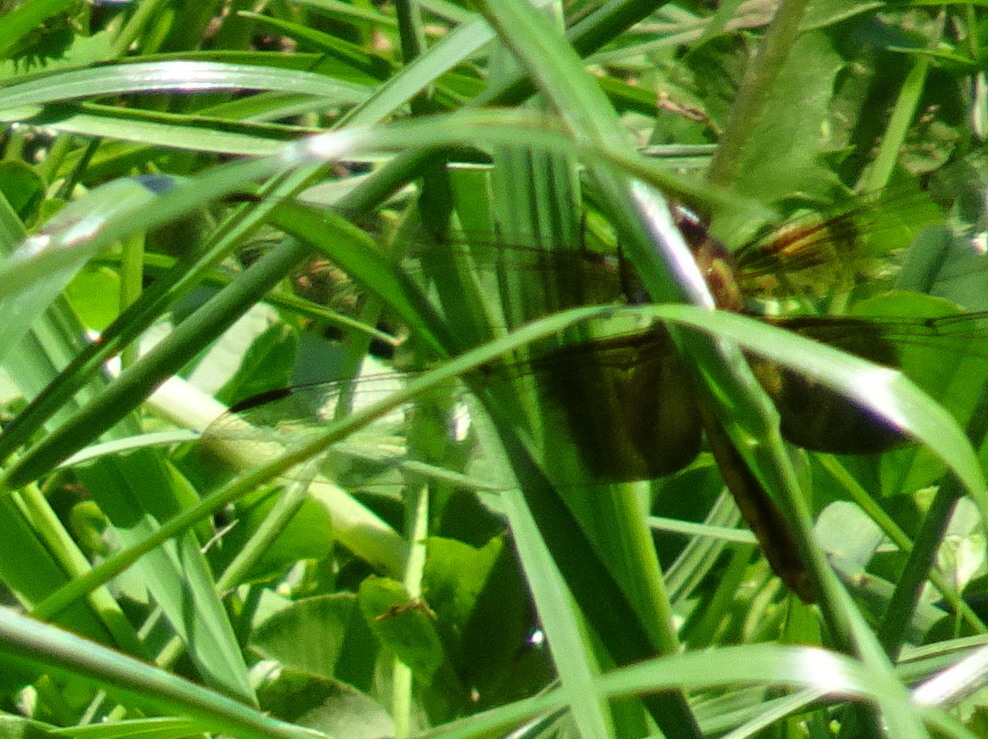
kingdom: Animalia
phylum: Arthropoda
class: Insecta
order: Odonata
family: Libellulidae
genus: Libellula
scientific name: Libellula luctuosa
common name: Widow skimmer
